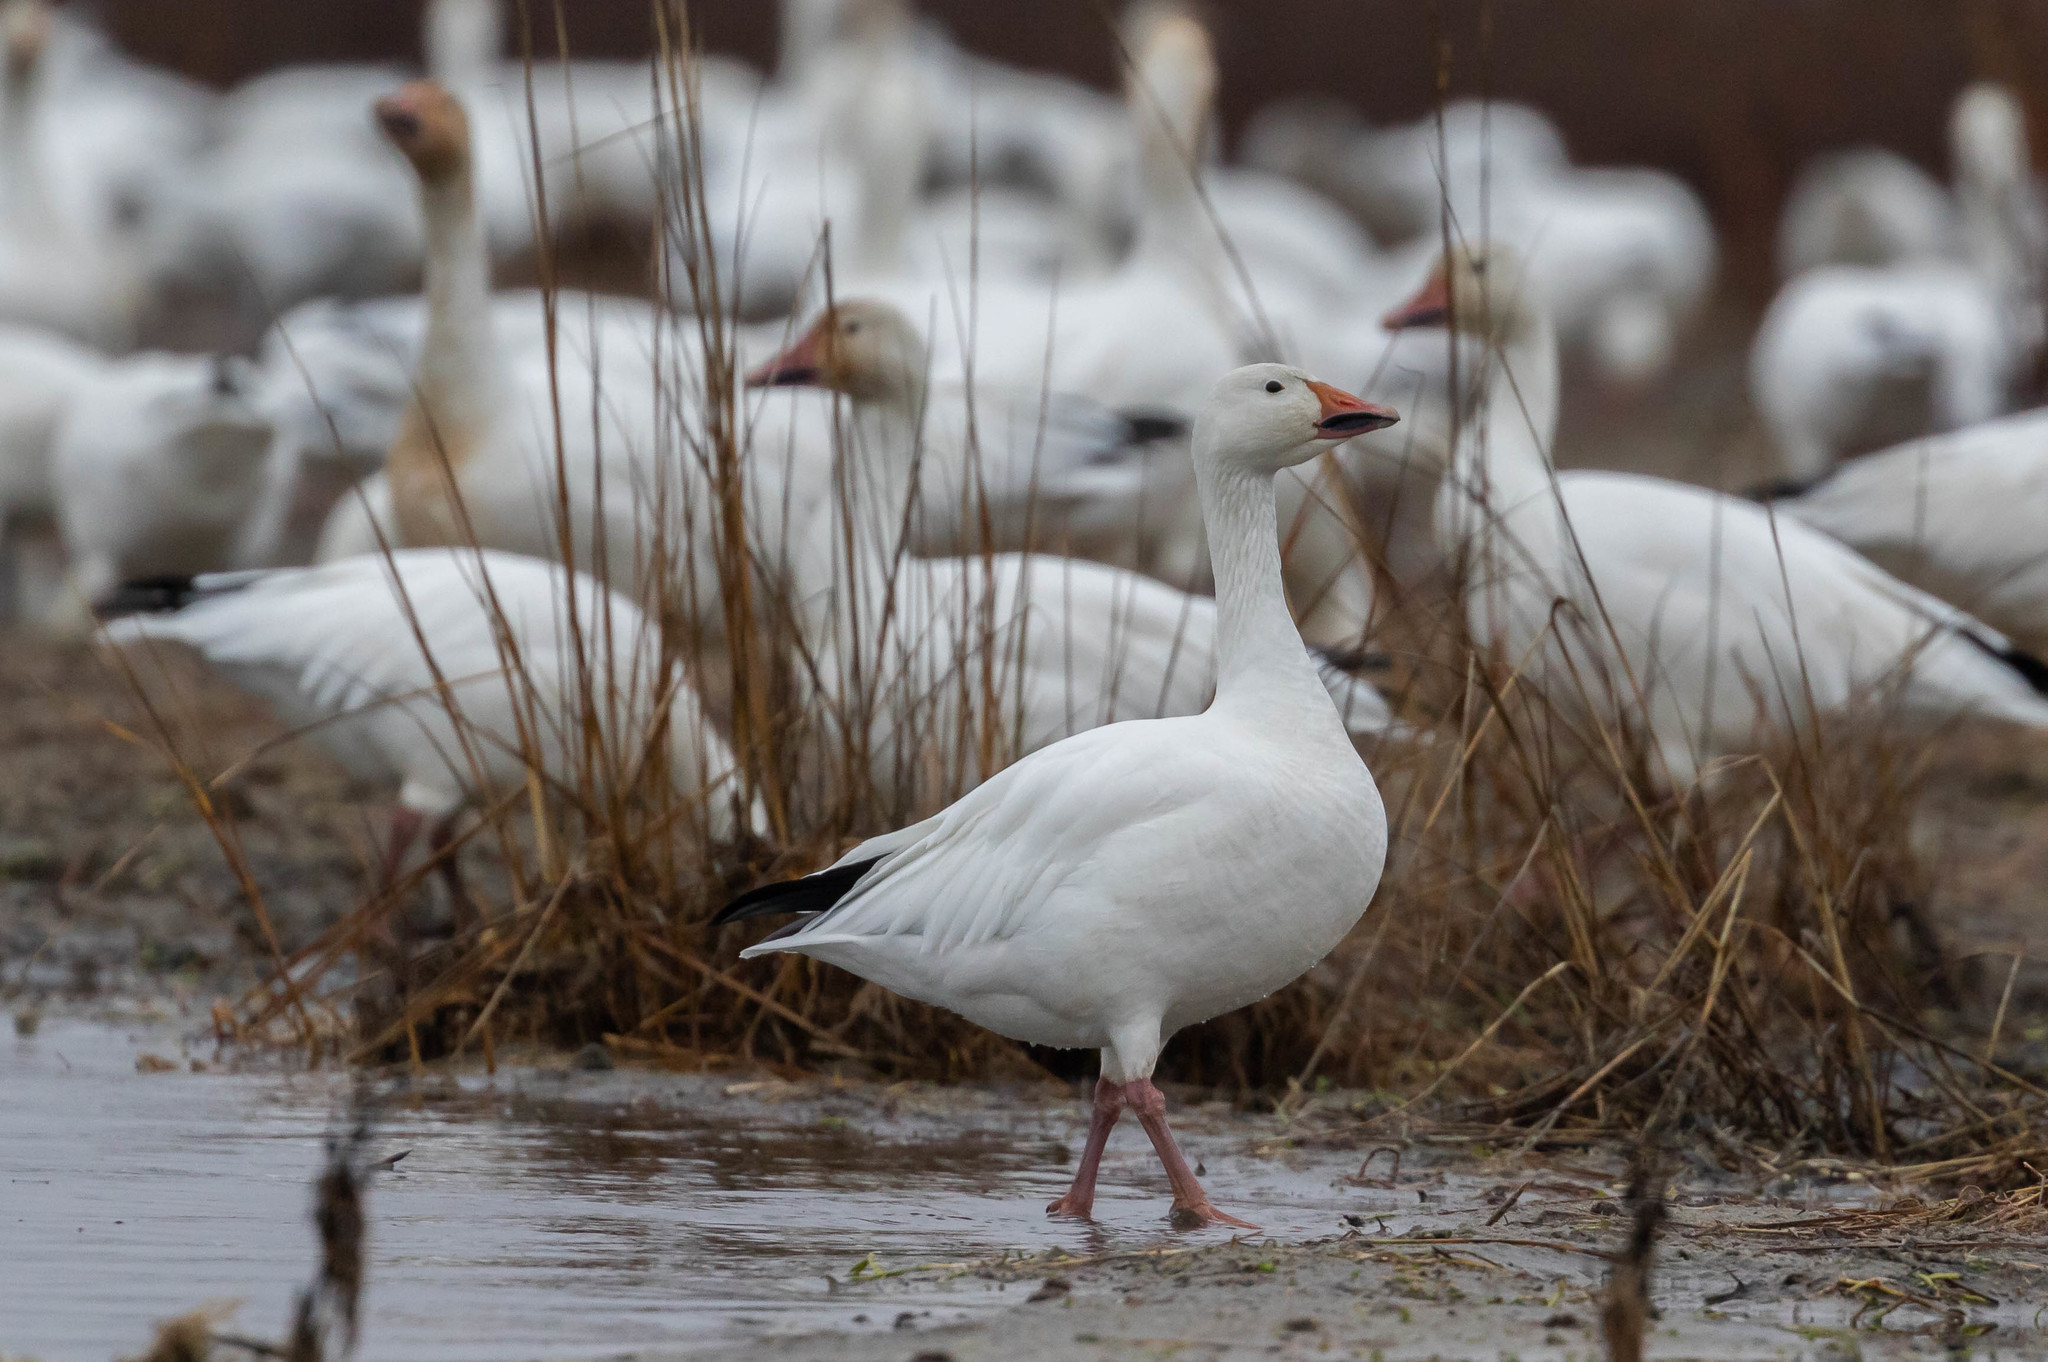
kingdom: Animalia
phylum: Chordata
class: Aves
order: Anseriformes
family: Anatidae
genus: Anser
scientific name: Anser caerulescens
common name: Snow goose
